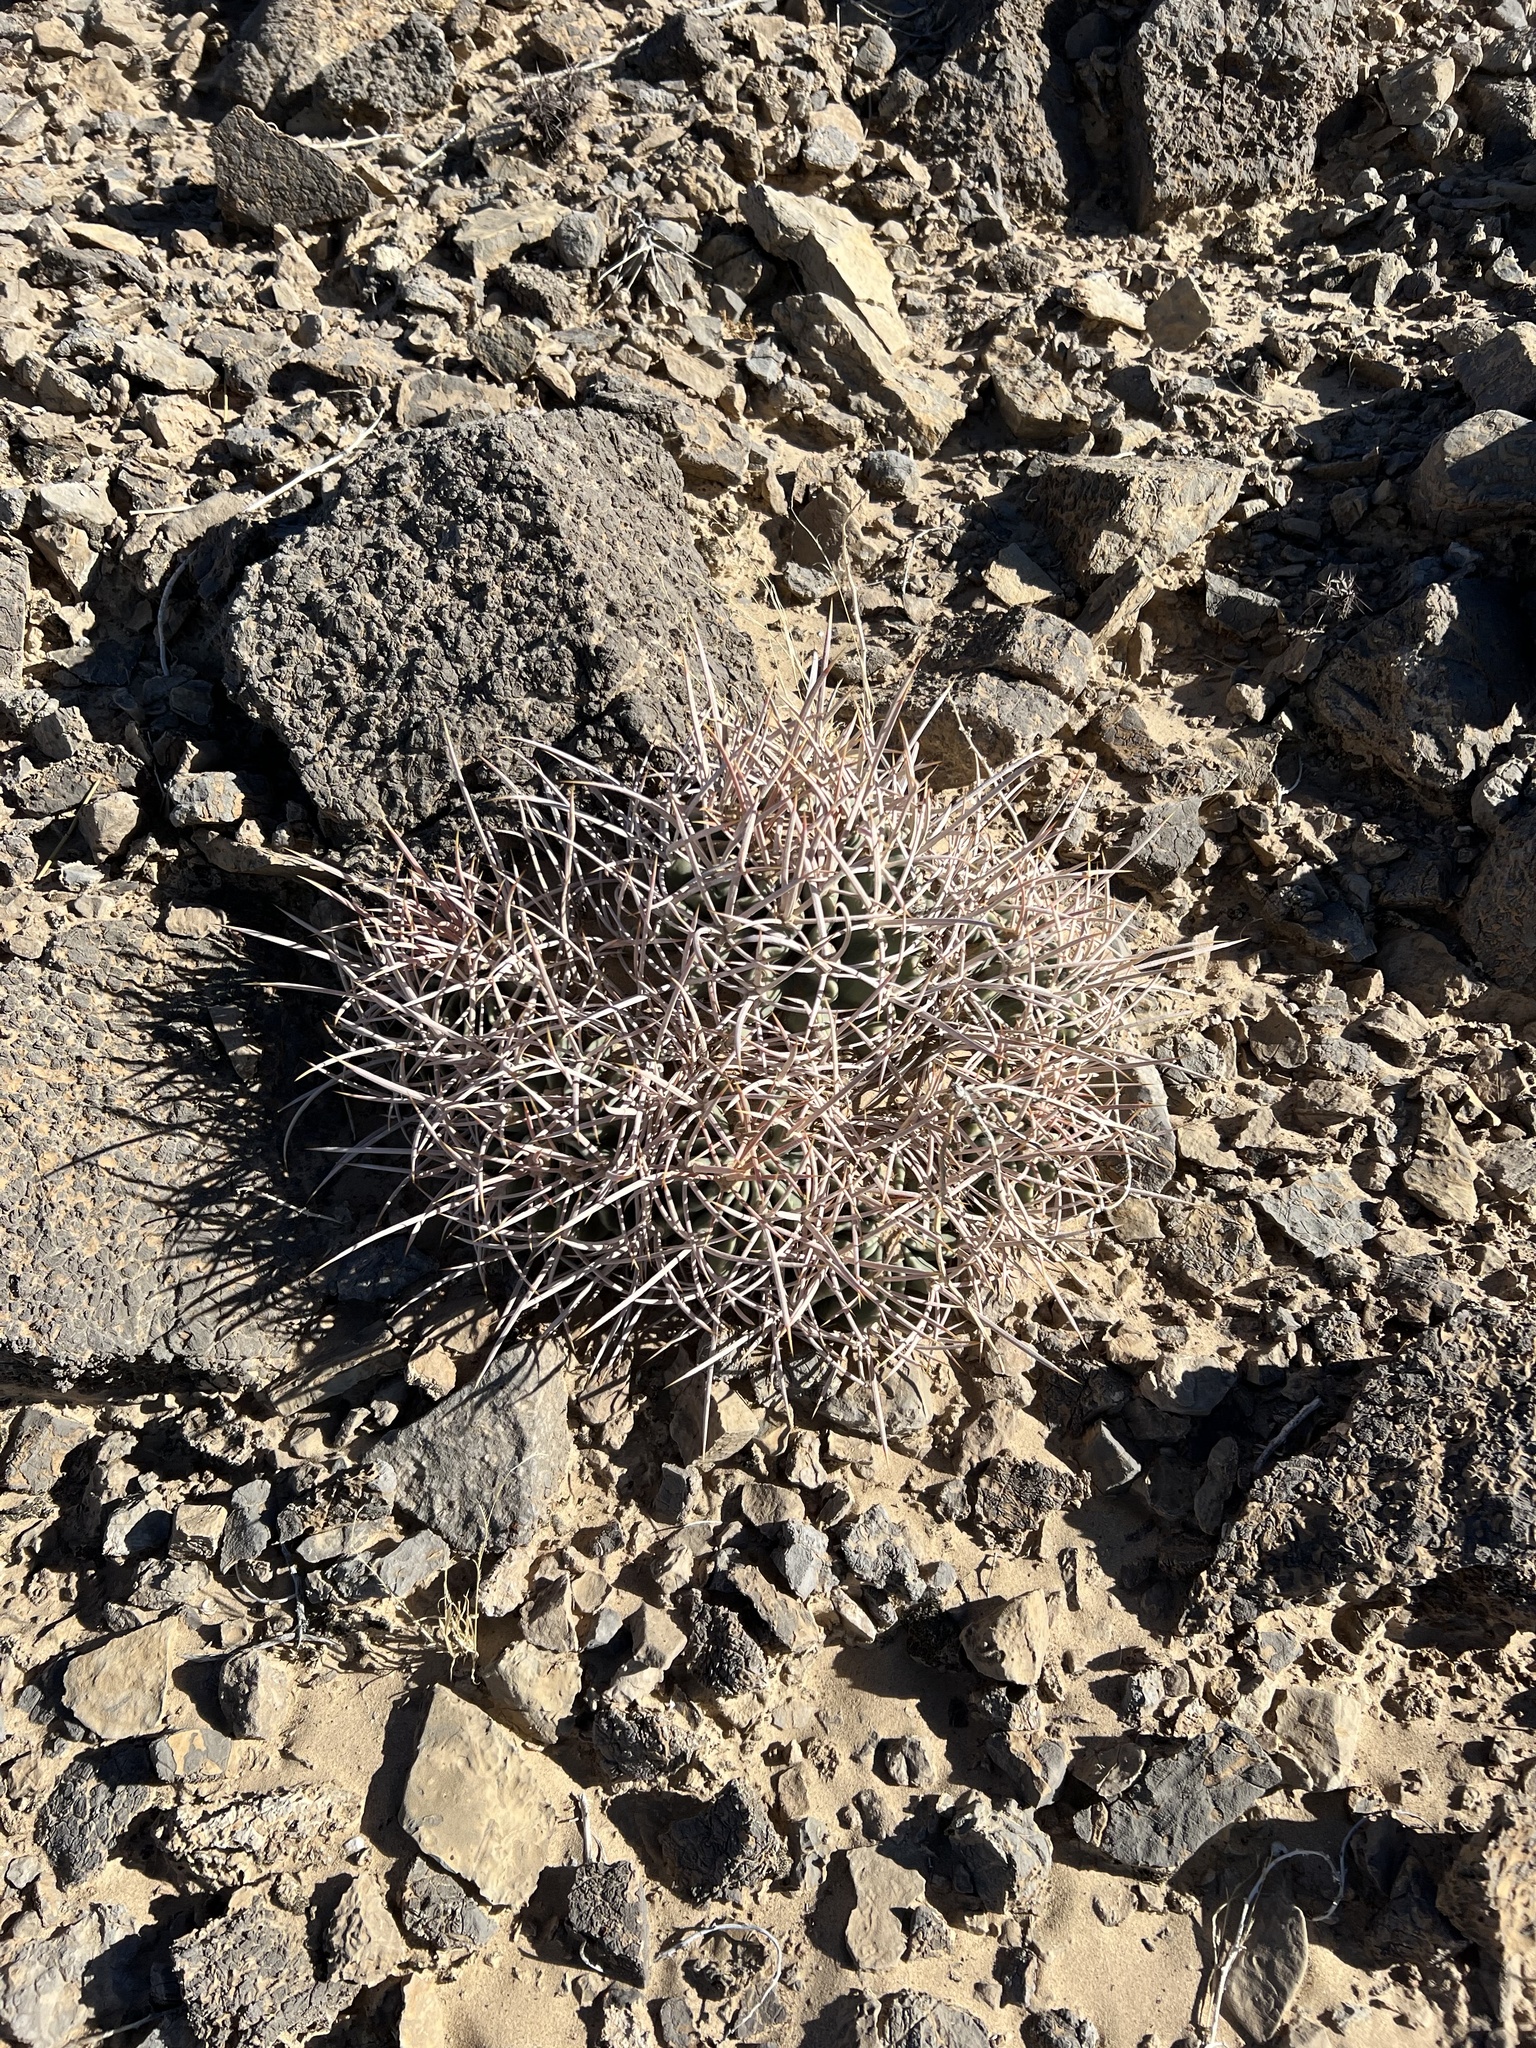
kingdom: Plantae
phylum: Tracheophyta
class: Magnoliopsida
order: Caryophyllales
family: Cactaceae
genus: Echinocactus
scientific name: Echinocactus polycephalus
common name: Cottontop cactus
